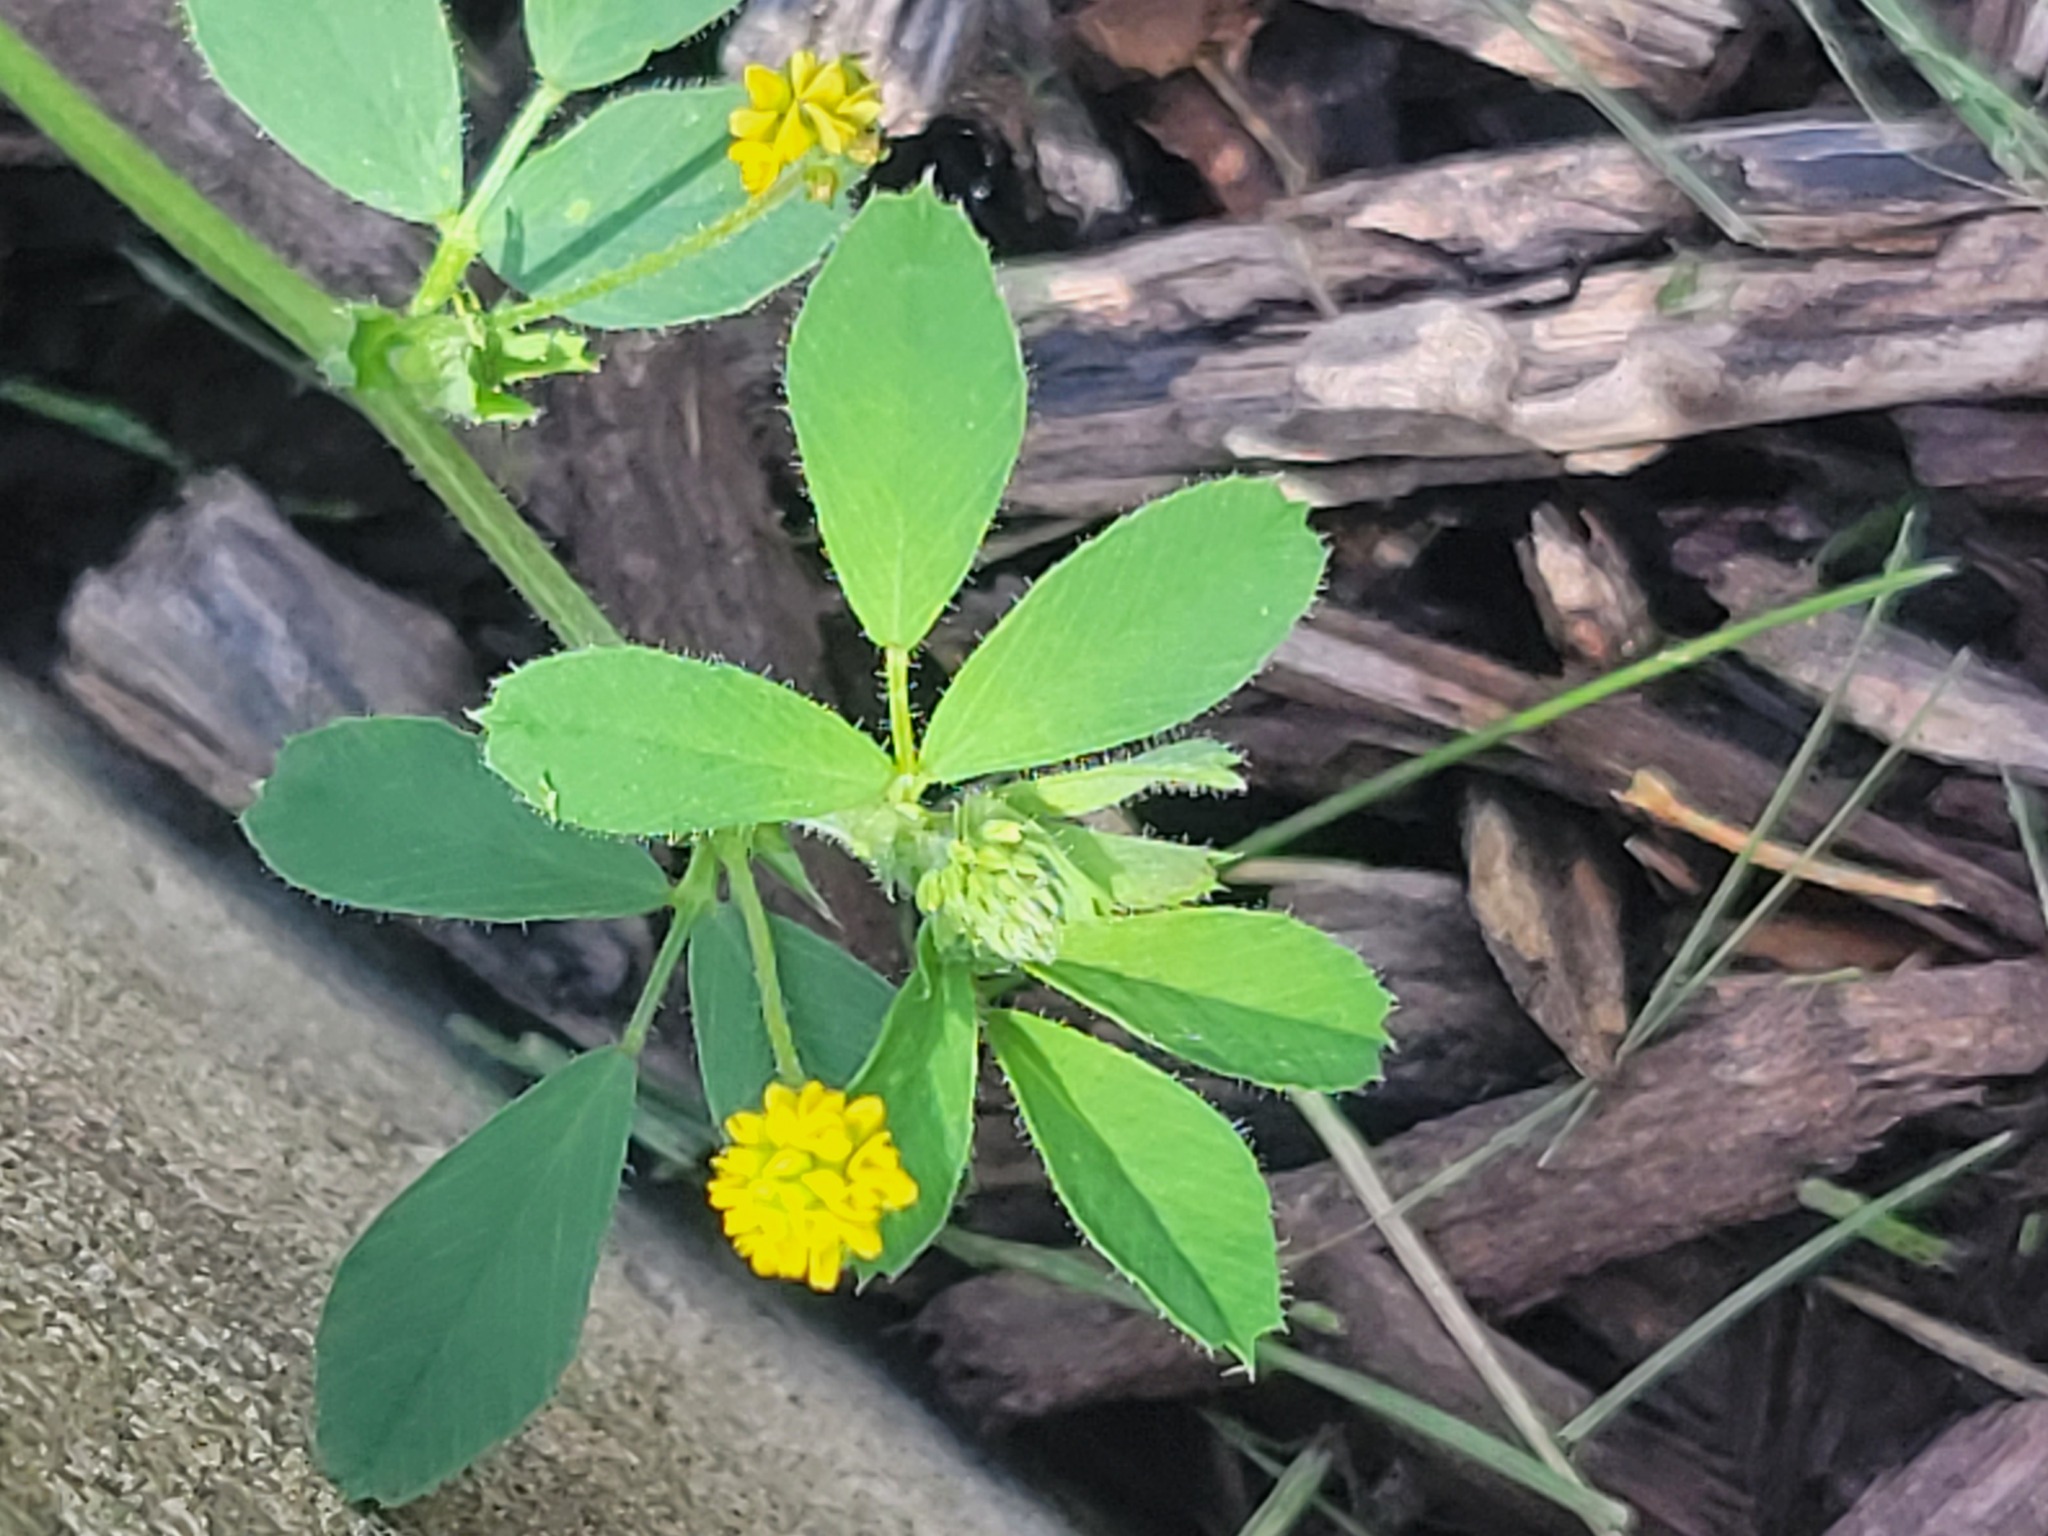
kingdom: Plantae
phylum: Tracheophyta
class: Magnoliopsida
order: Fabales
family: Fabaceae
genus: Medicago
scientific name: Medicago lupulina
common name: Black medick
